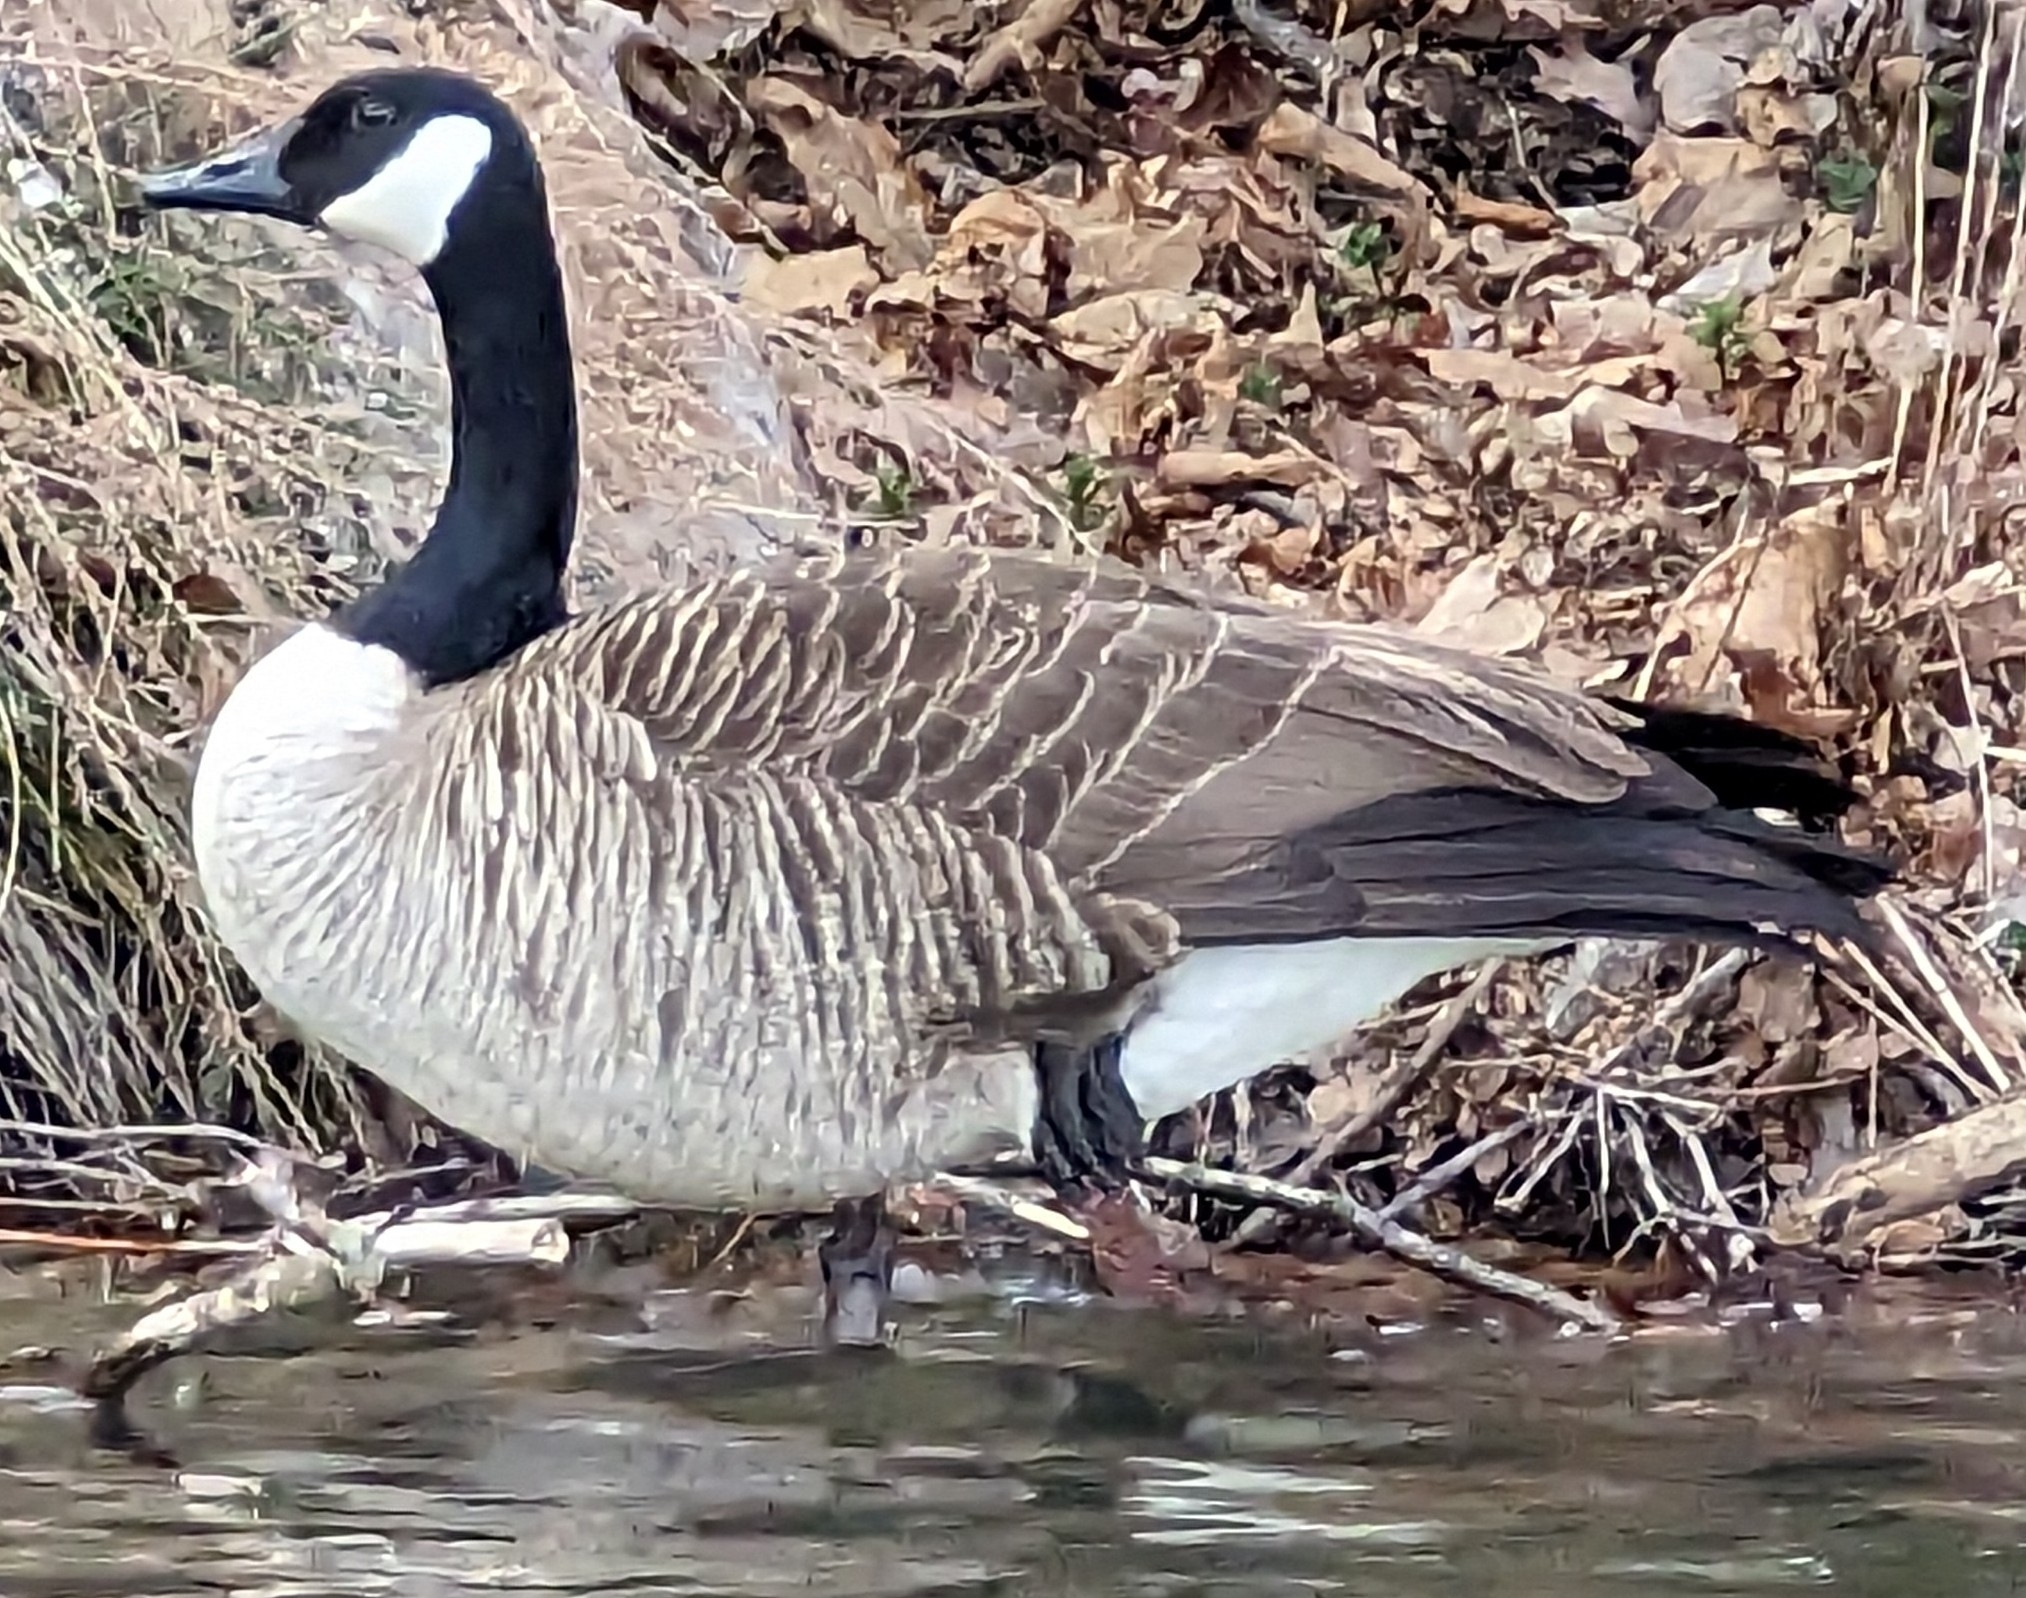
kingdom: Animalia
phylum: Chordata
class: Aves
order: Anseriformes
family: Anatidae
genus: Branta
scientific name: Branta canadensis
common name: Canada goose
